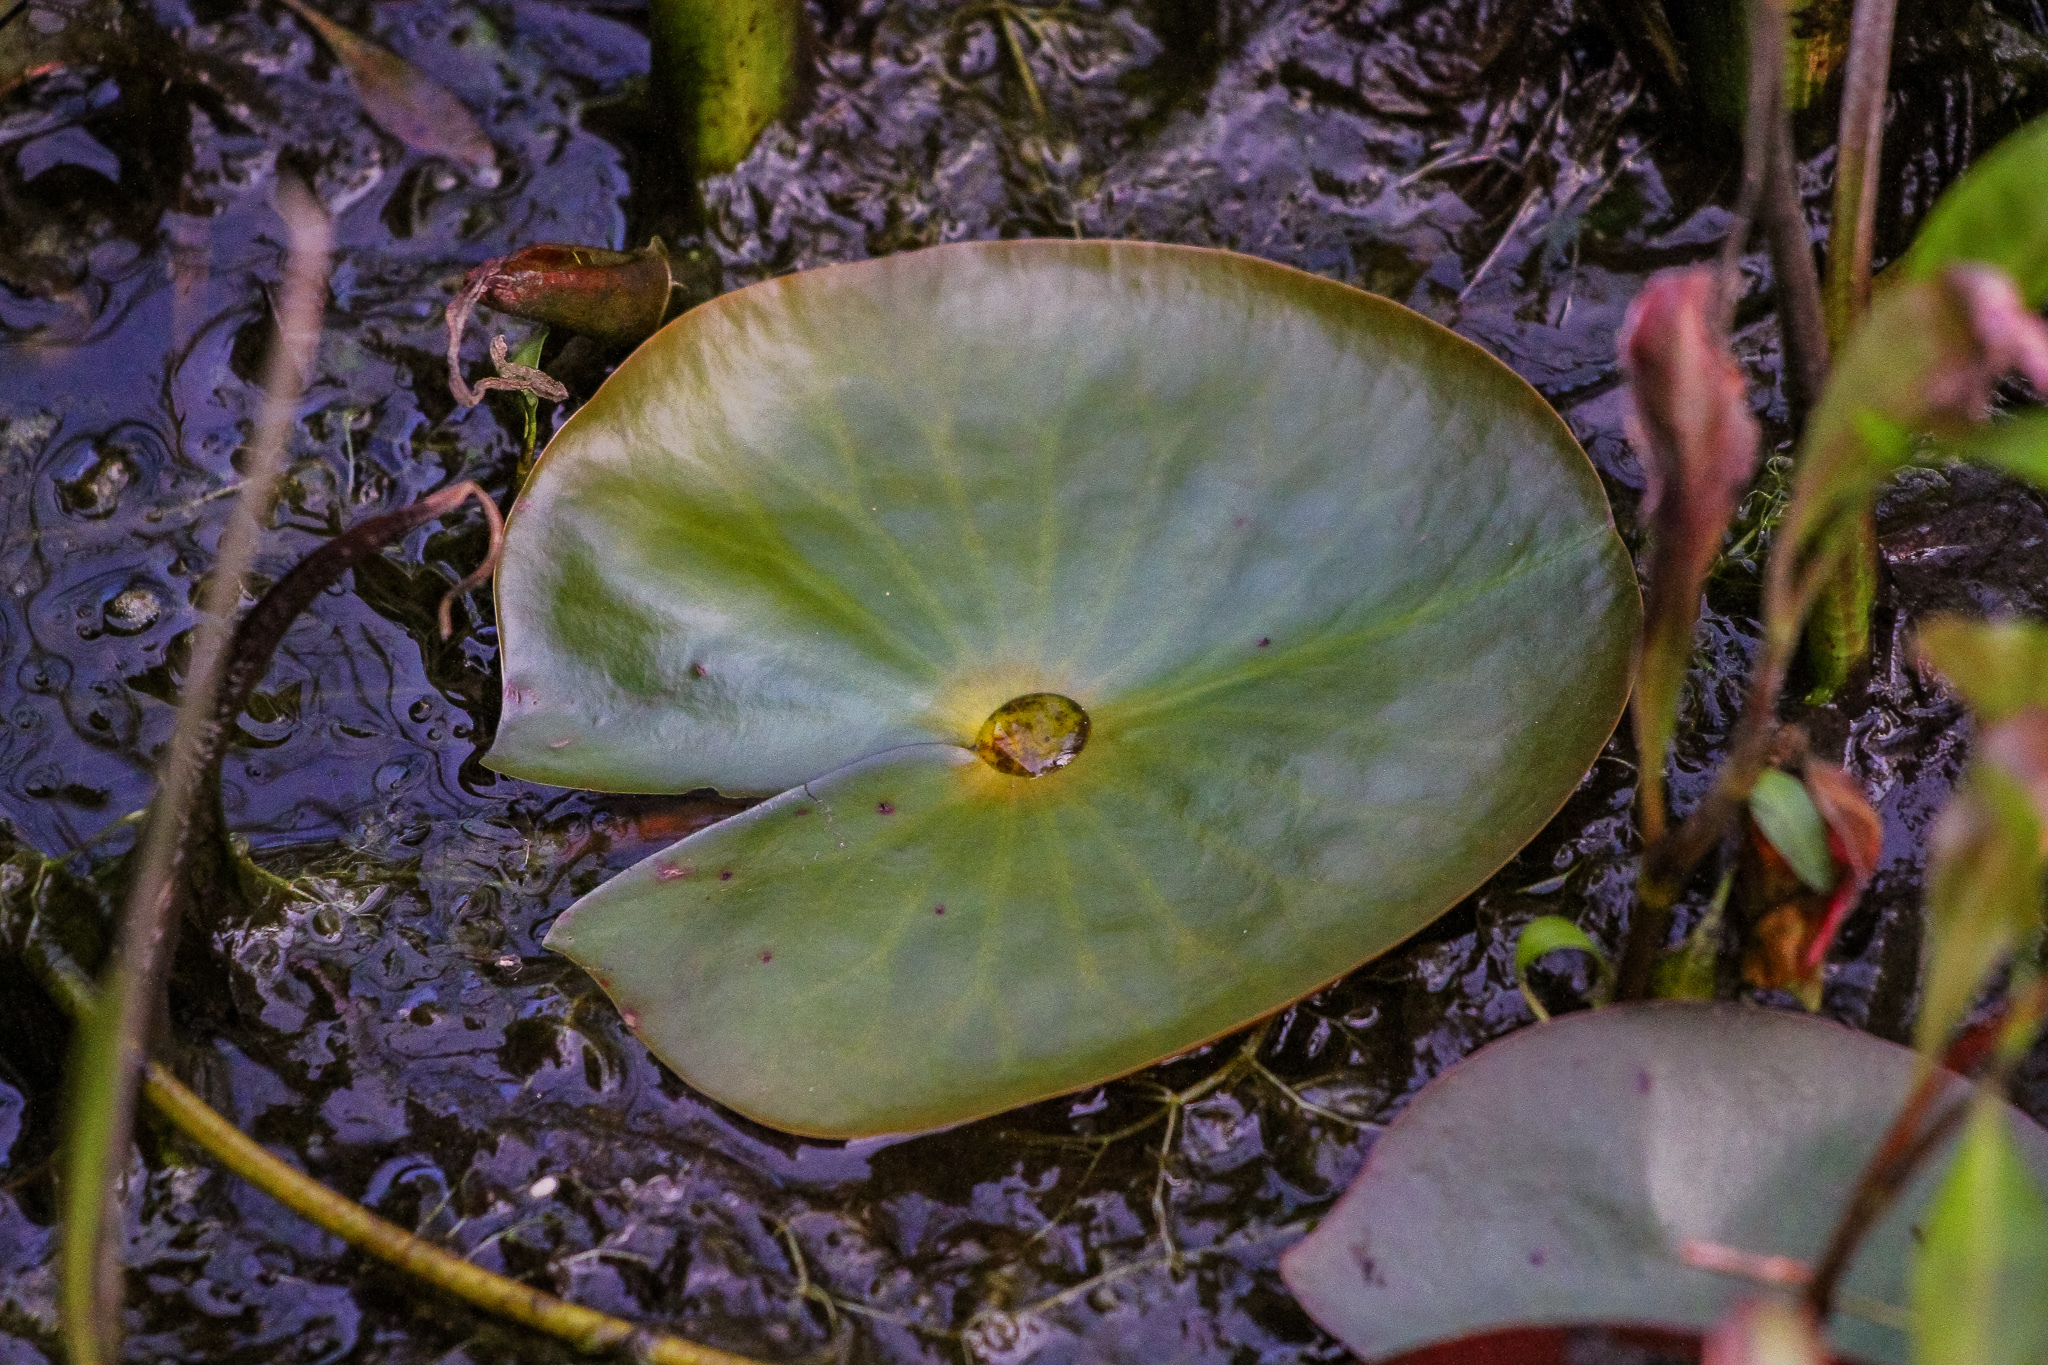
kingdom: Plantae
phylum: Tracheophyta
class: Magnoliopsida
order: Nymphaeales
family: Nymphaeaceae
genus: Nymphaea
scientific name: Nymphaea odorata
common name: Fragrant water-lily
